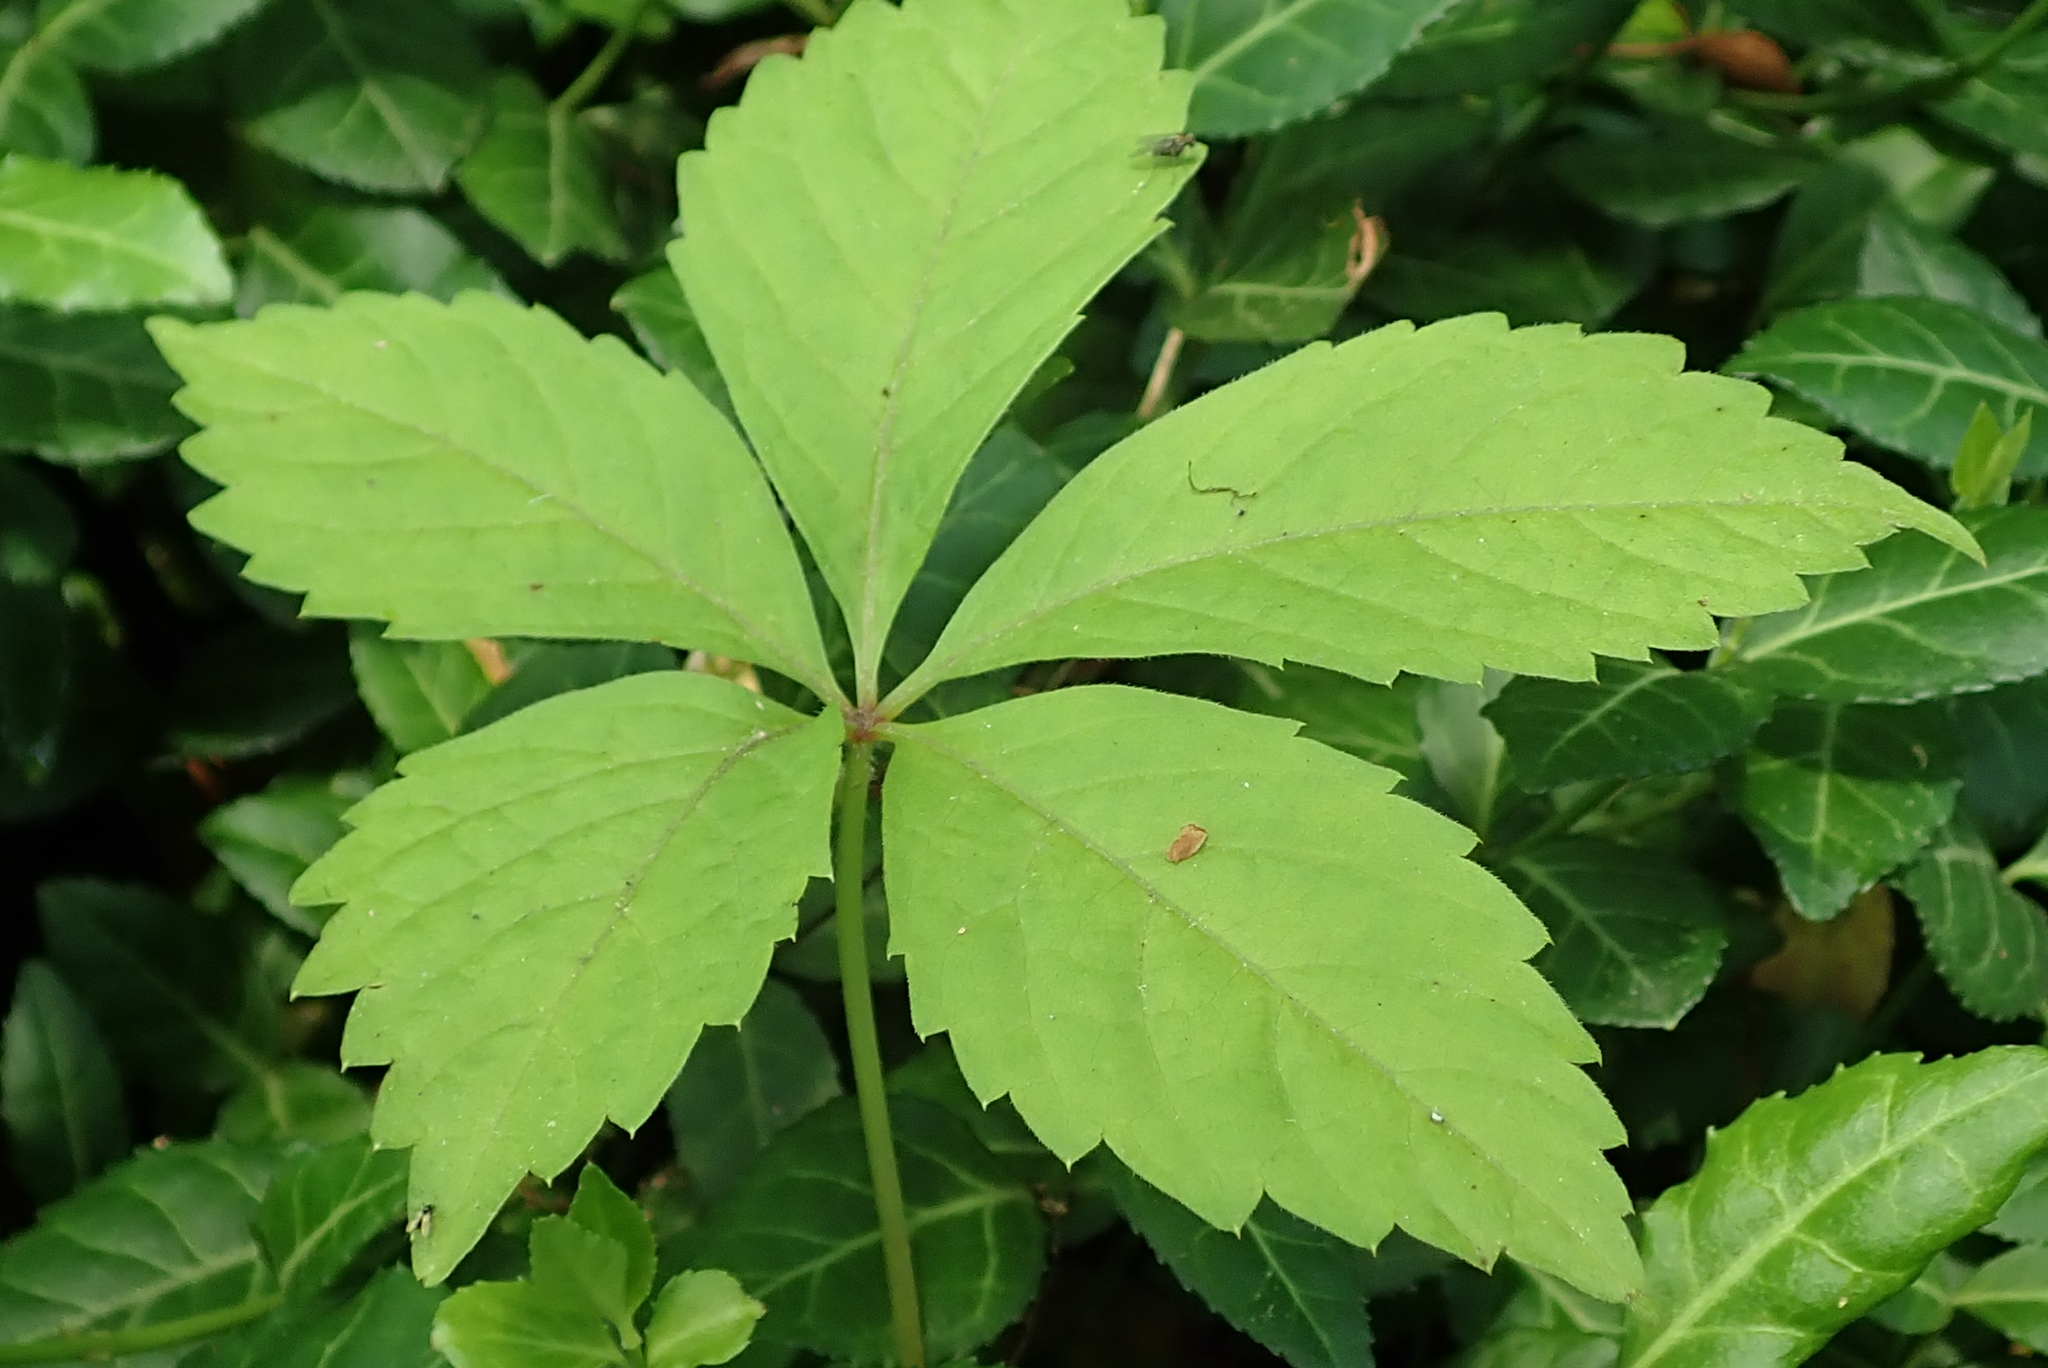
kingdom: Plantae
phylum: Tracheophyta
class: Magnoliopsida
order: Vitales
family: Vitaceae
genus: Parthenocissus
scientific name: Parthenocissus quinquefolia
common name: Virginia-creeper
